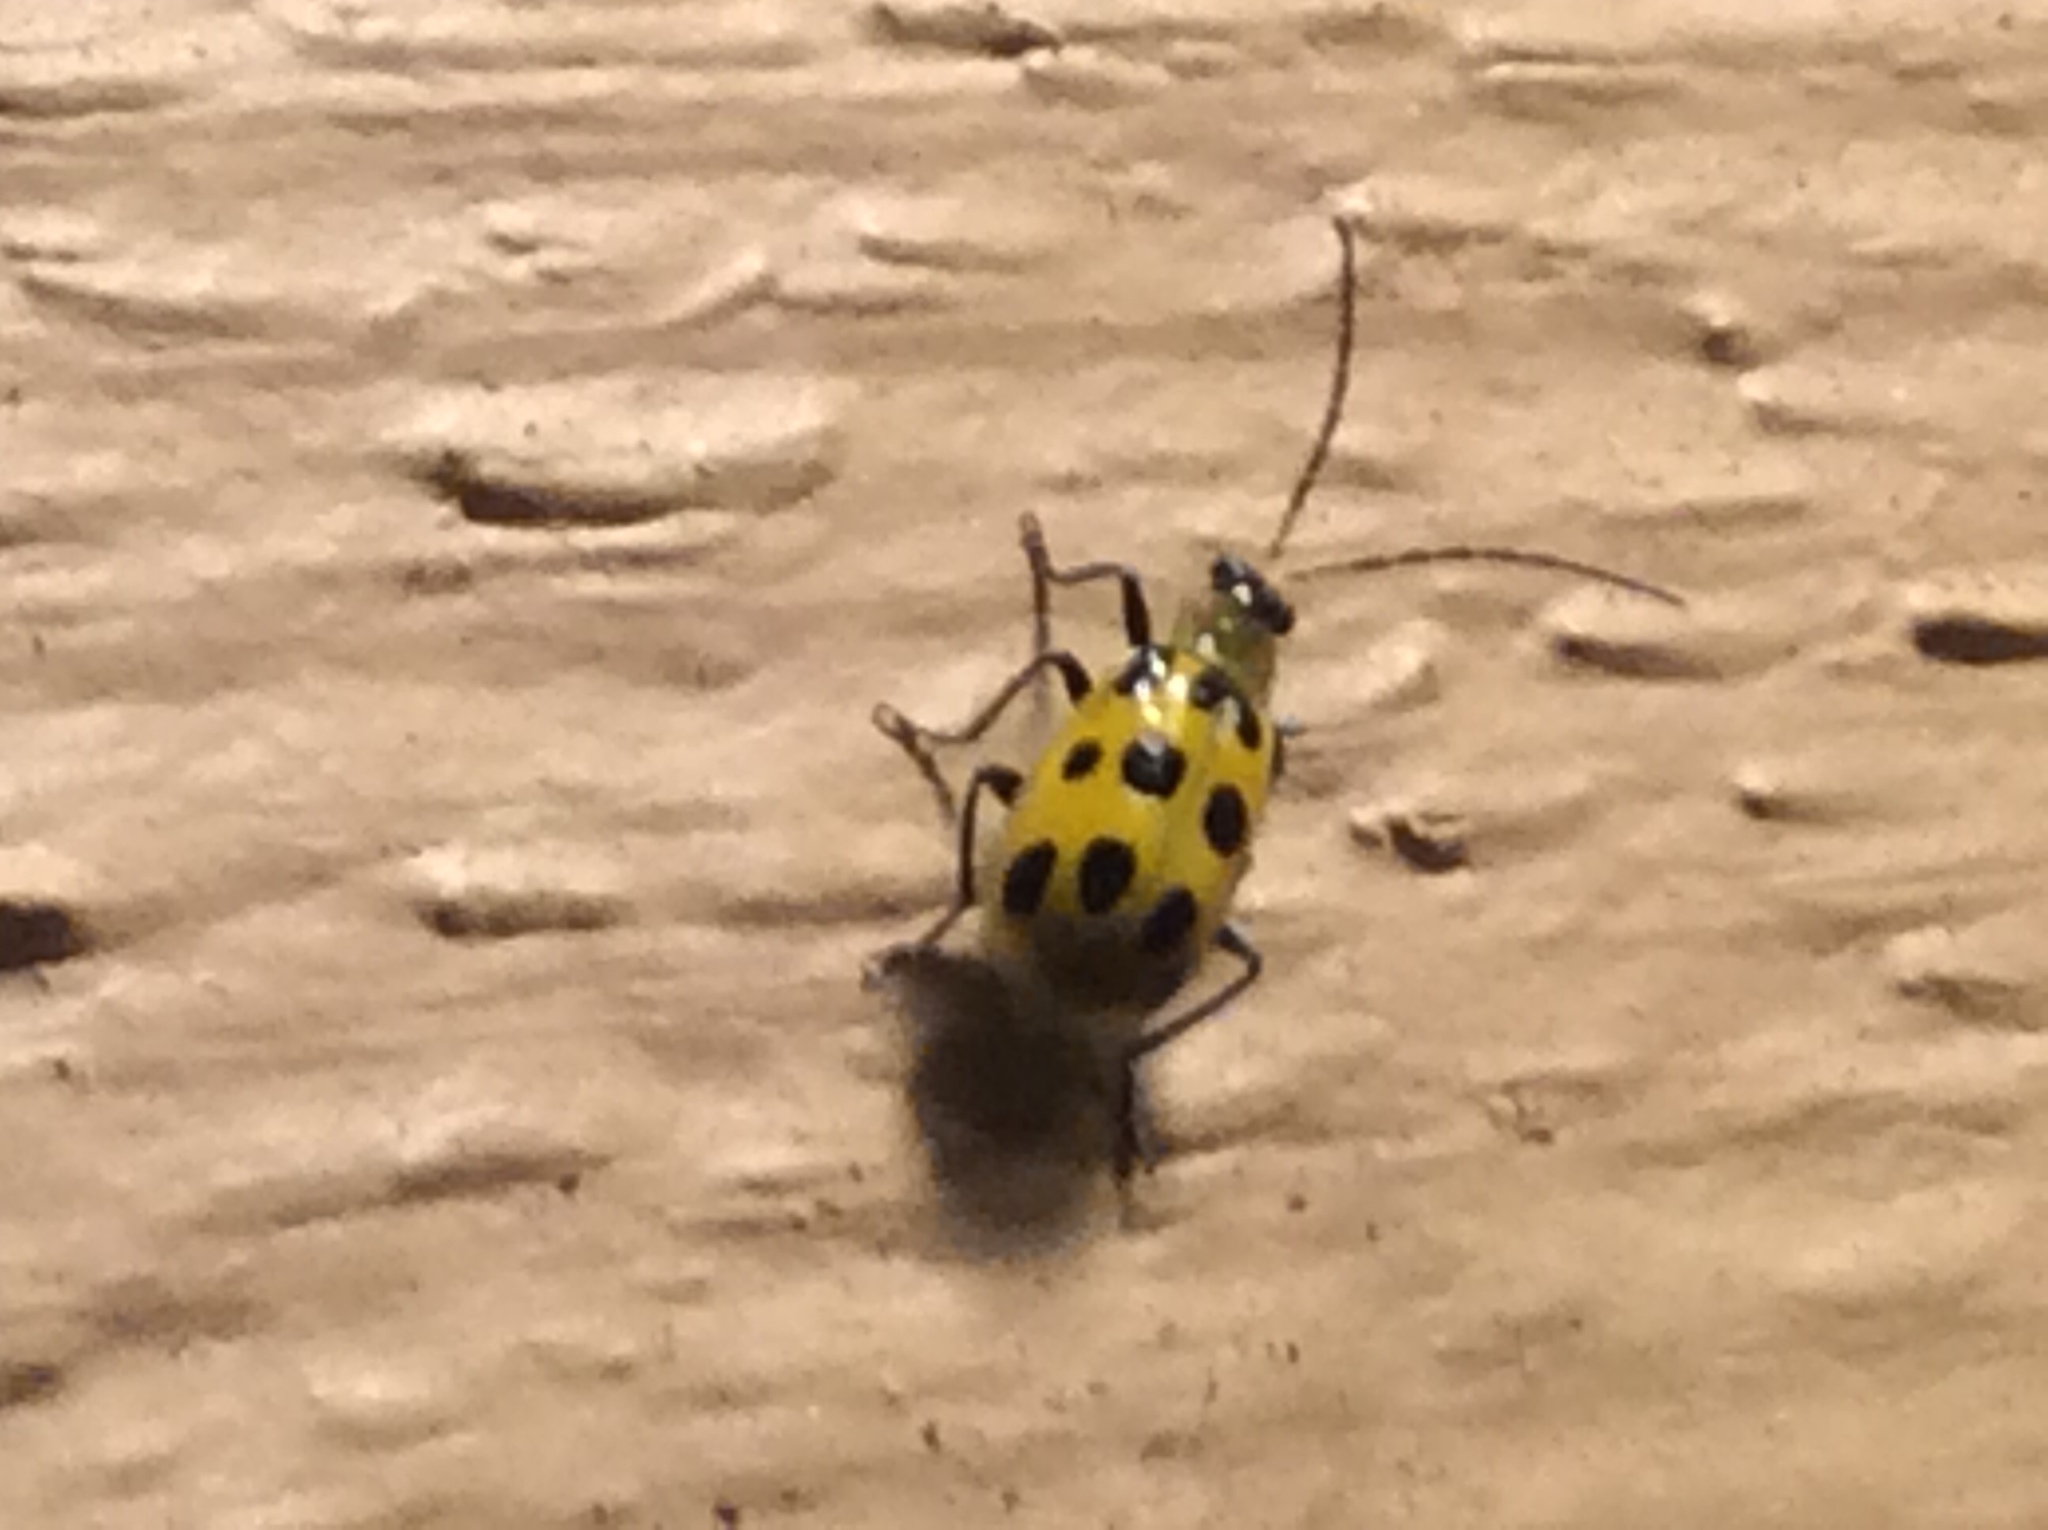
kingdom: Animalia
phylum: Arthropoda
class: Insecta
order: Coleoptera
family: Chrysomelidae
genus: Diabrotica
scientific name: Diabrotica undecimpunctata
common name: Spotted cucumber beetle
